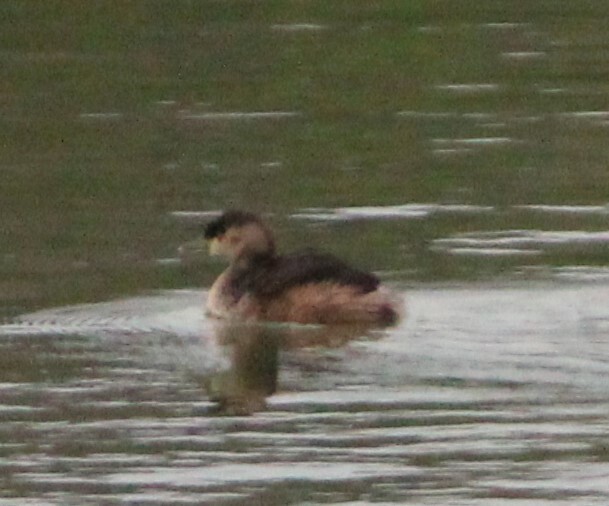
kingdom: Animalia
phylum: Chordata
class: Aves
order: Podicipediformes
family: Podicipedidae
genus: Tachybaptus
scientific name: Tachybaptus novaehollandiae
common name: Australasian grebe
